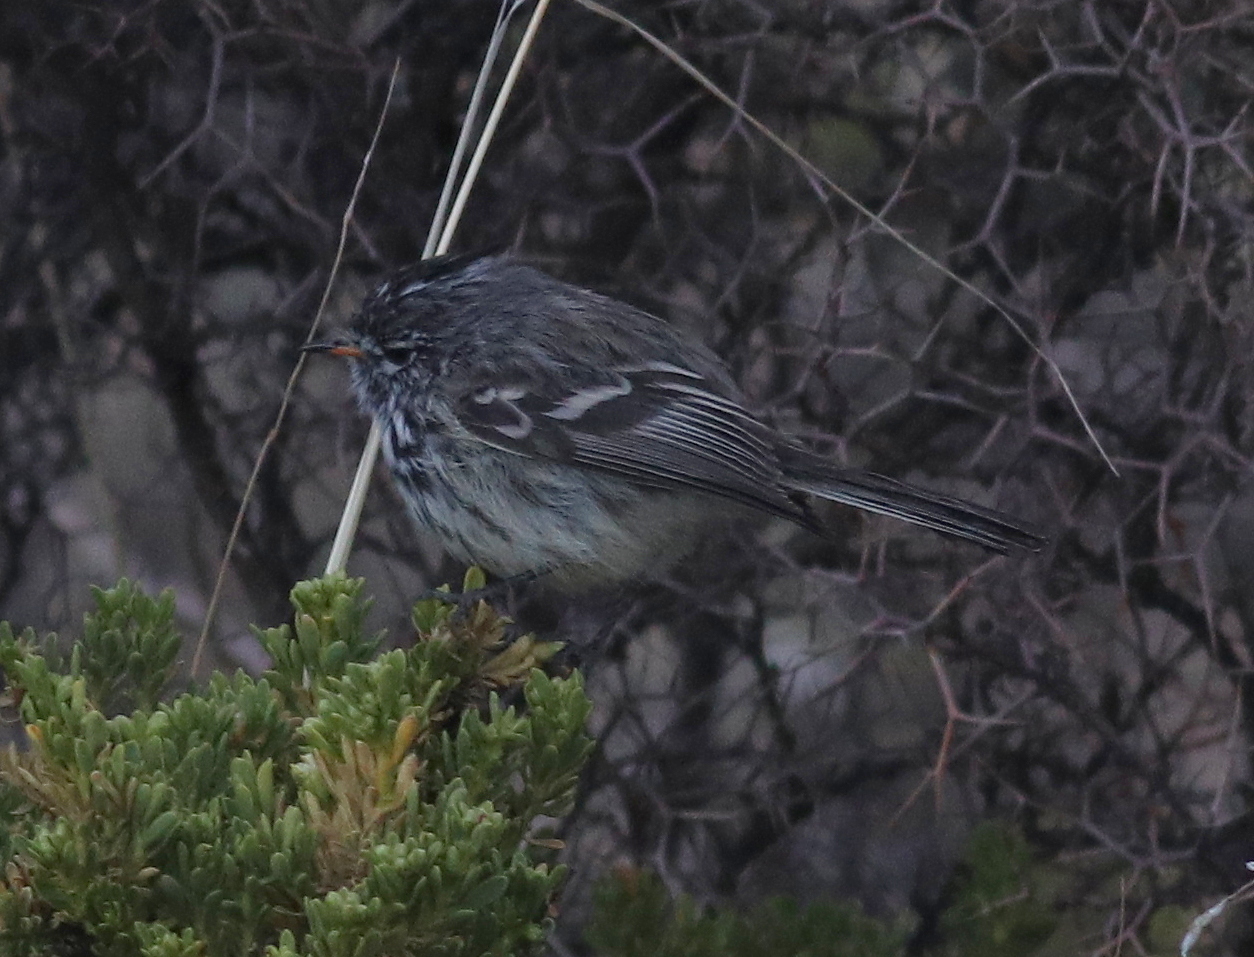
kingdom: Animalia
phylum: Chordata
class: Aves
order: Passeriformes
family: Tyrannidae
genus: Anairetes
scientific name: Anairetes flavirostris
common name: Yellow-billed tit-tyrant
